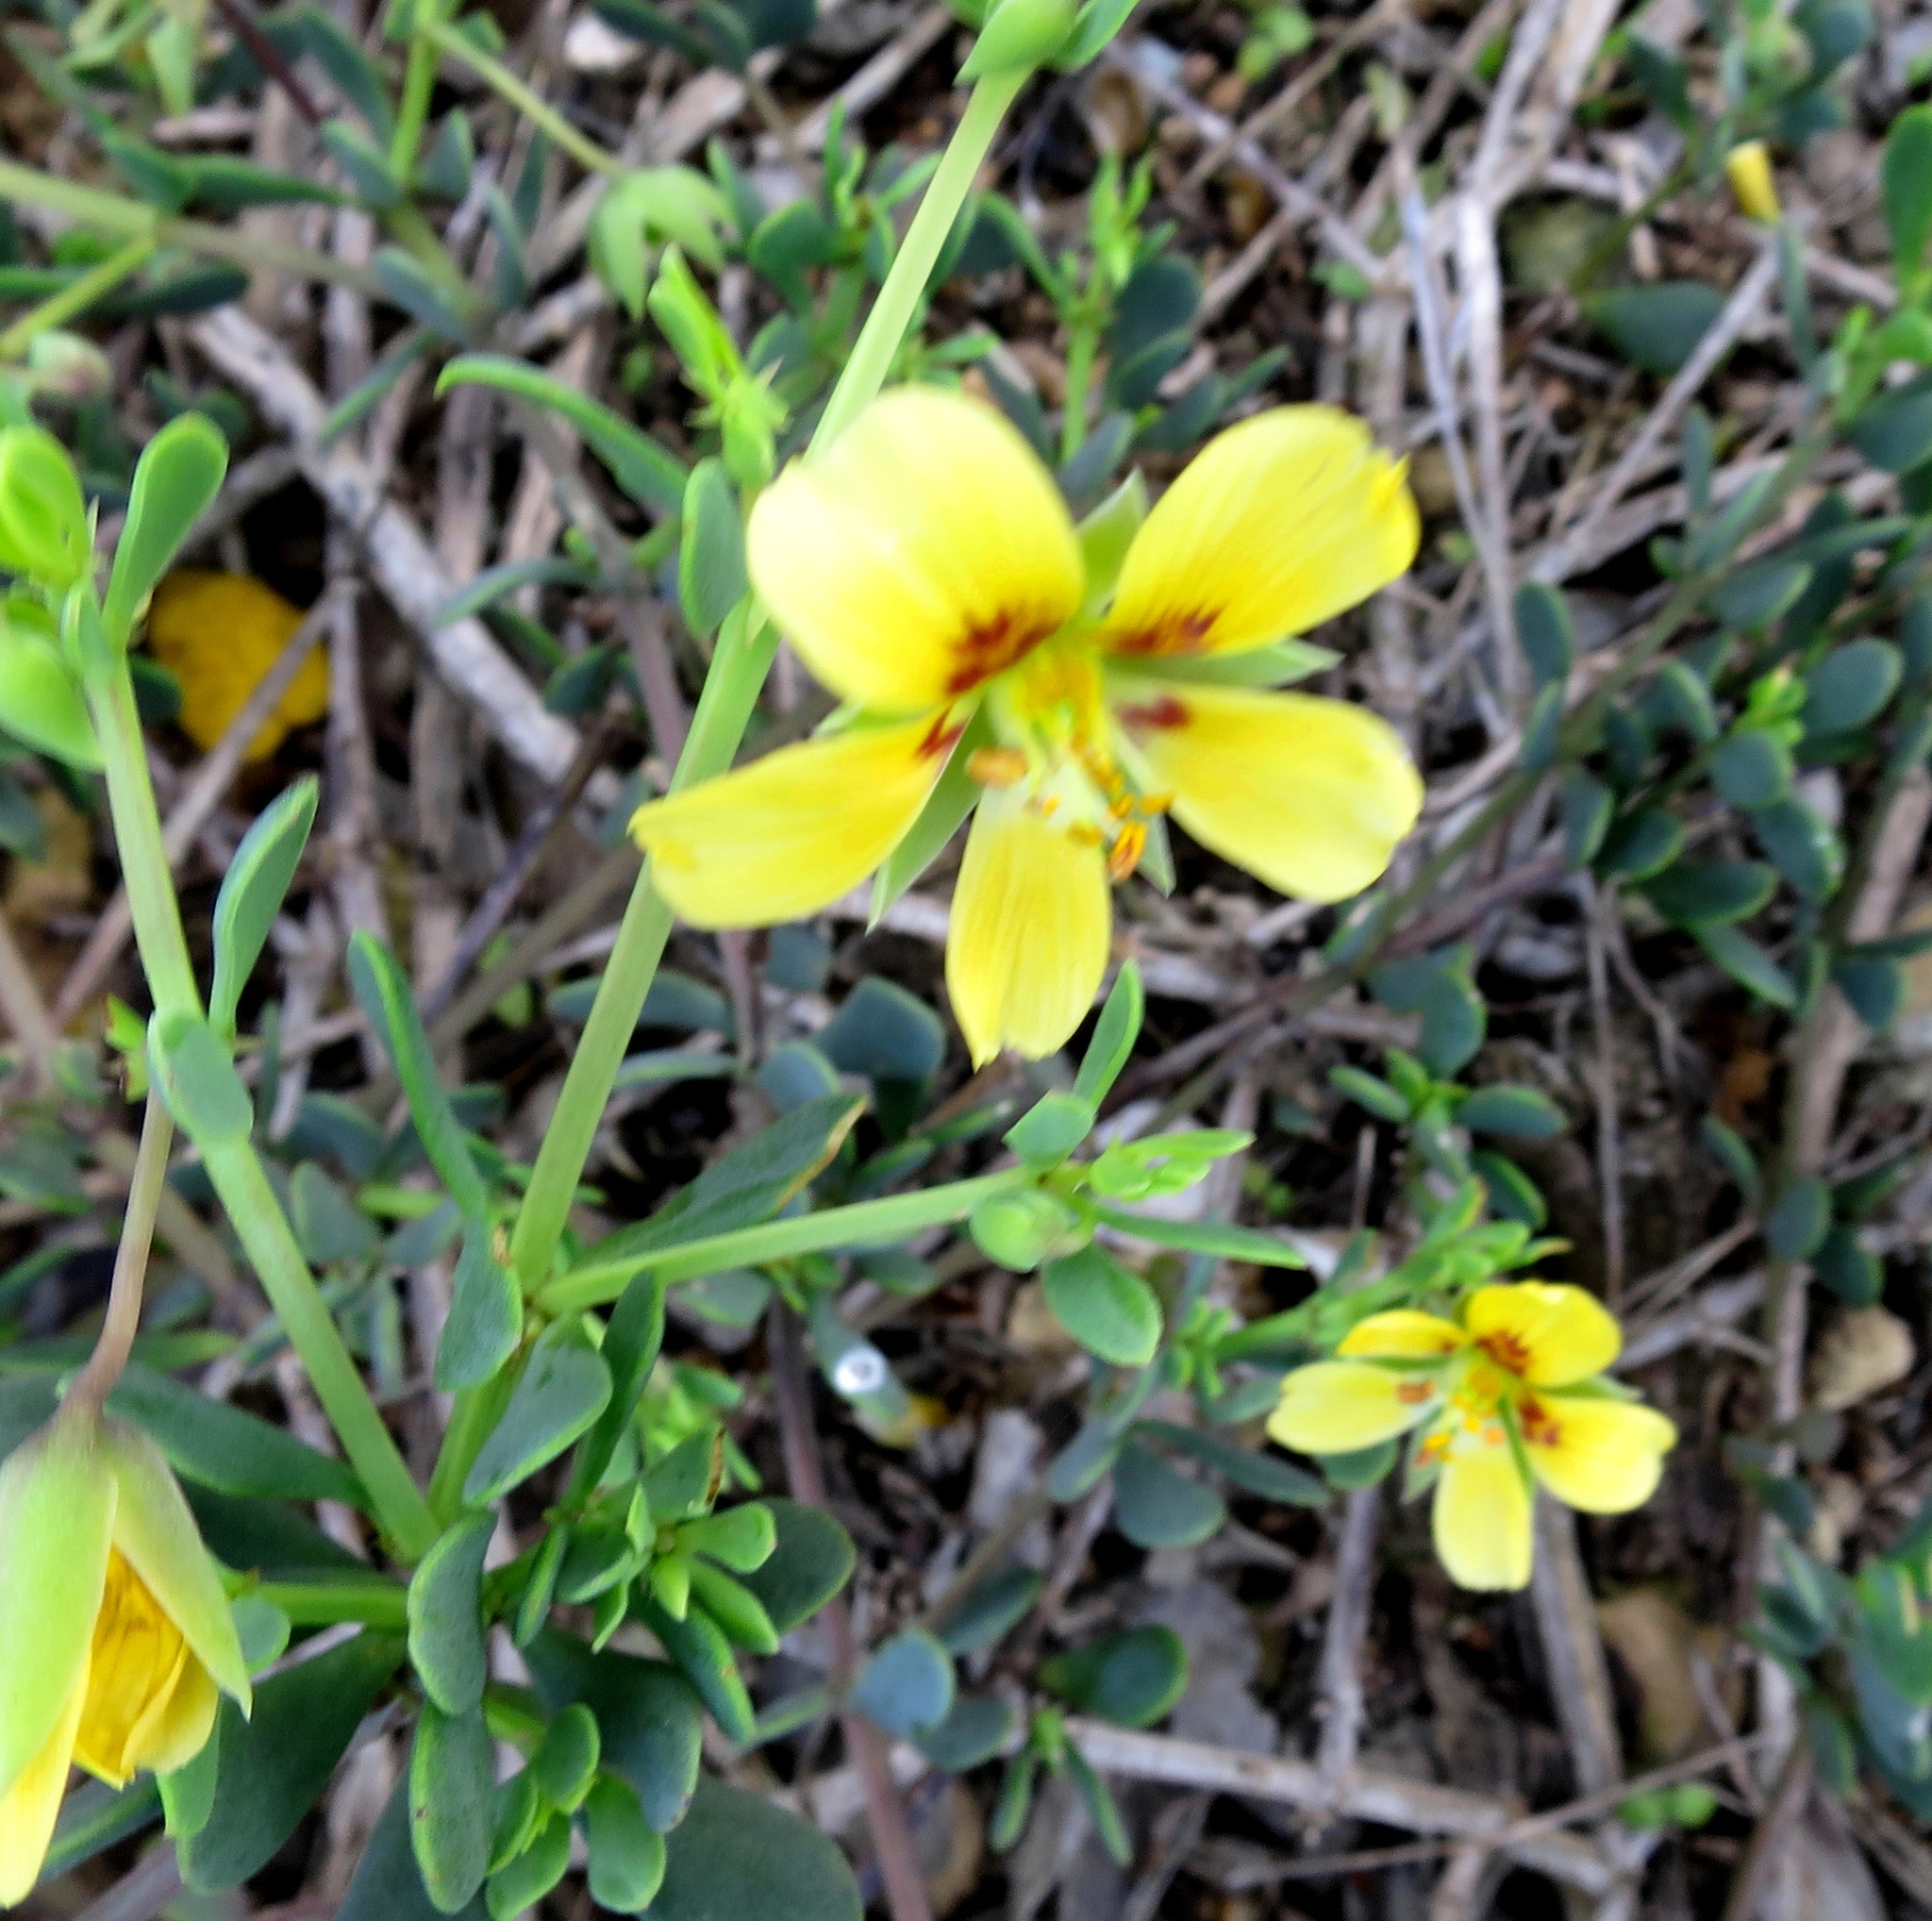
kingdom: Plantae
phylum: Tracheophyta
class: Magnoliopsida
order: Zygophyllales
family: Zygophyllaceae
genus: Roepera
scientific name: Roepera flexuosa
